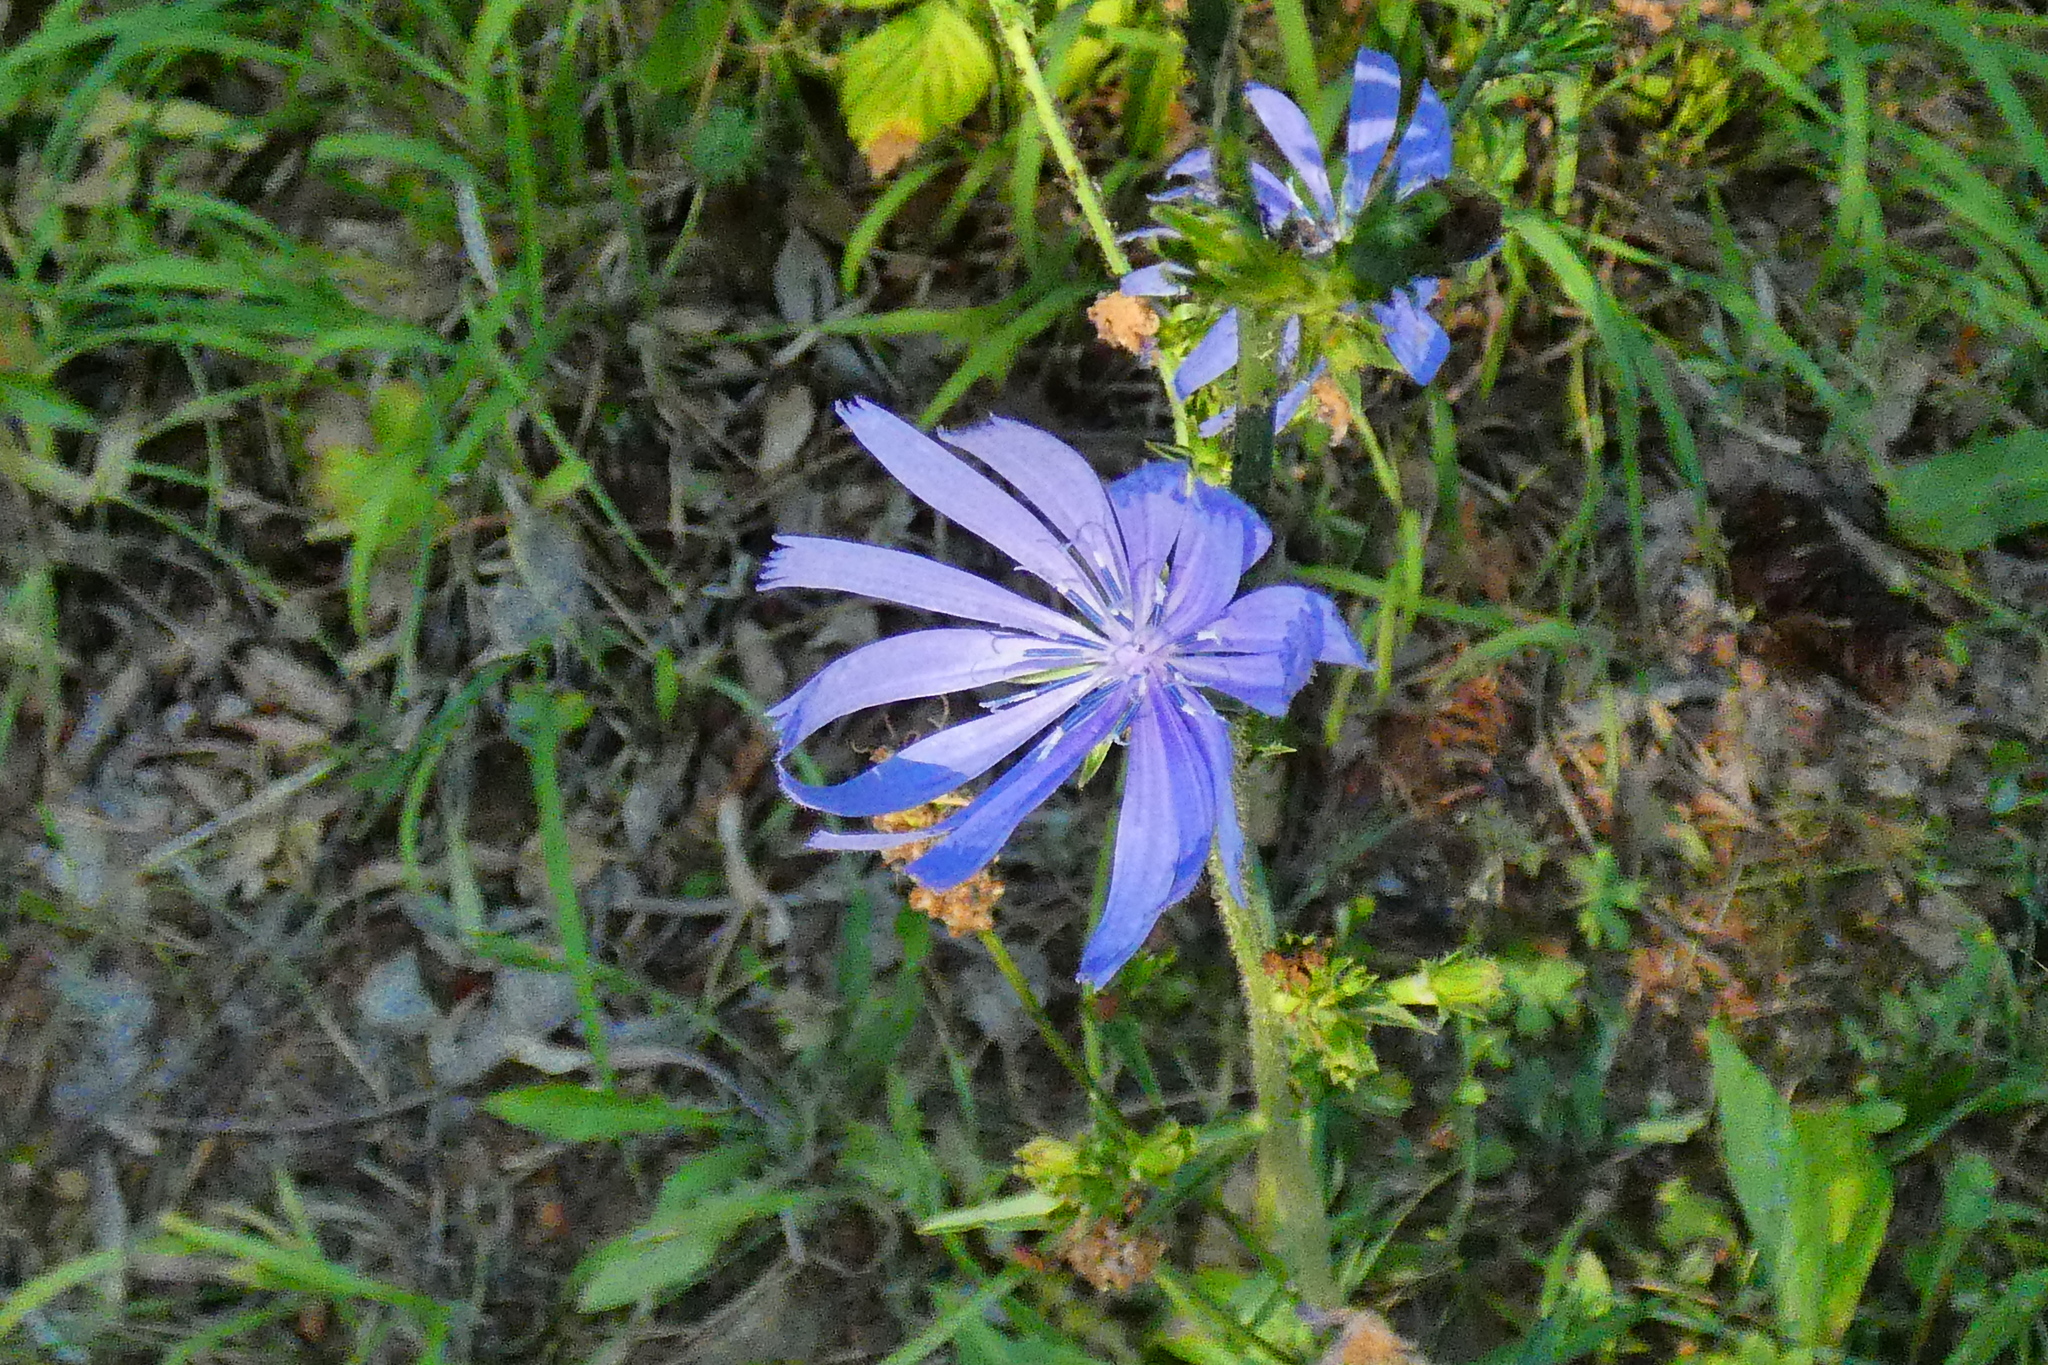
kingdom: Plantae
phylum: Tracheophyta
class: Magnoliopsida
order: Asterales
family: Asteraceae
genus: Cichorium
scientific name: Cichorium intybus
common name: Chicory
